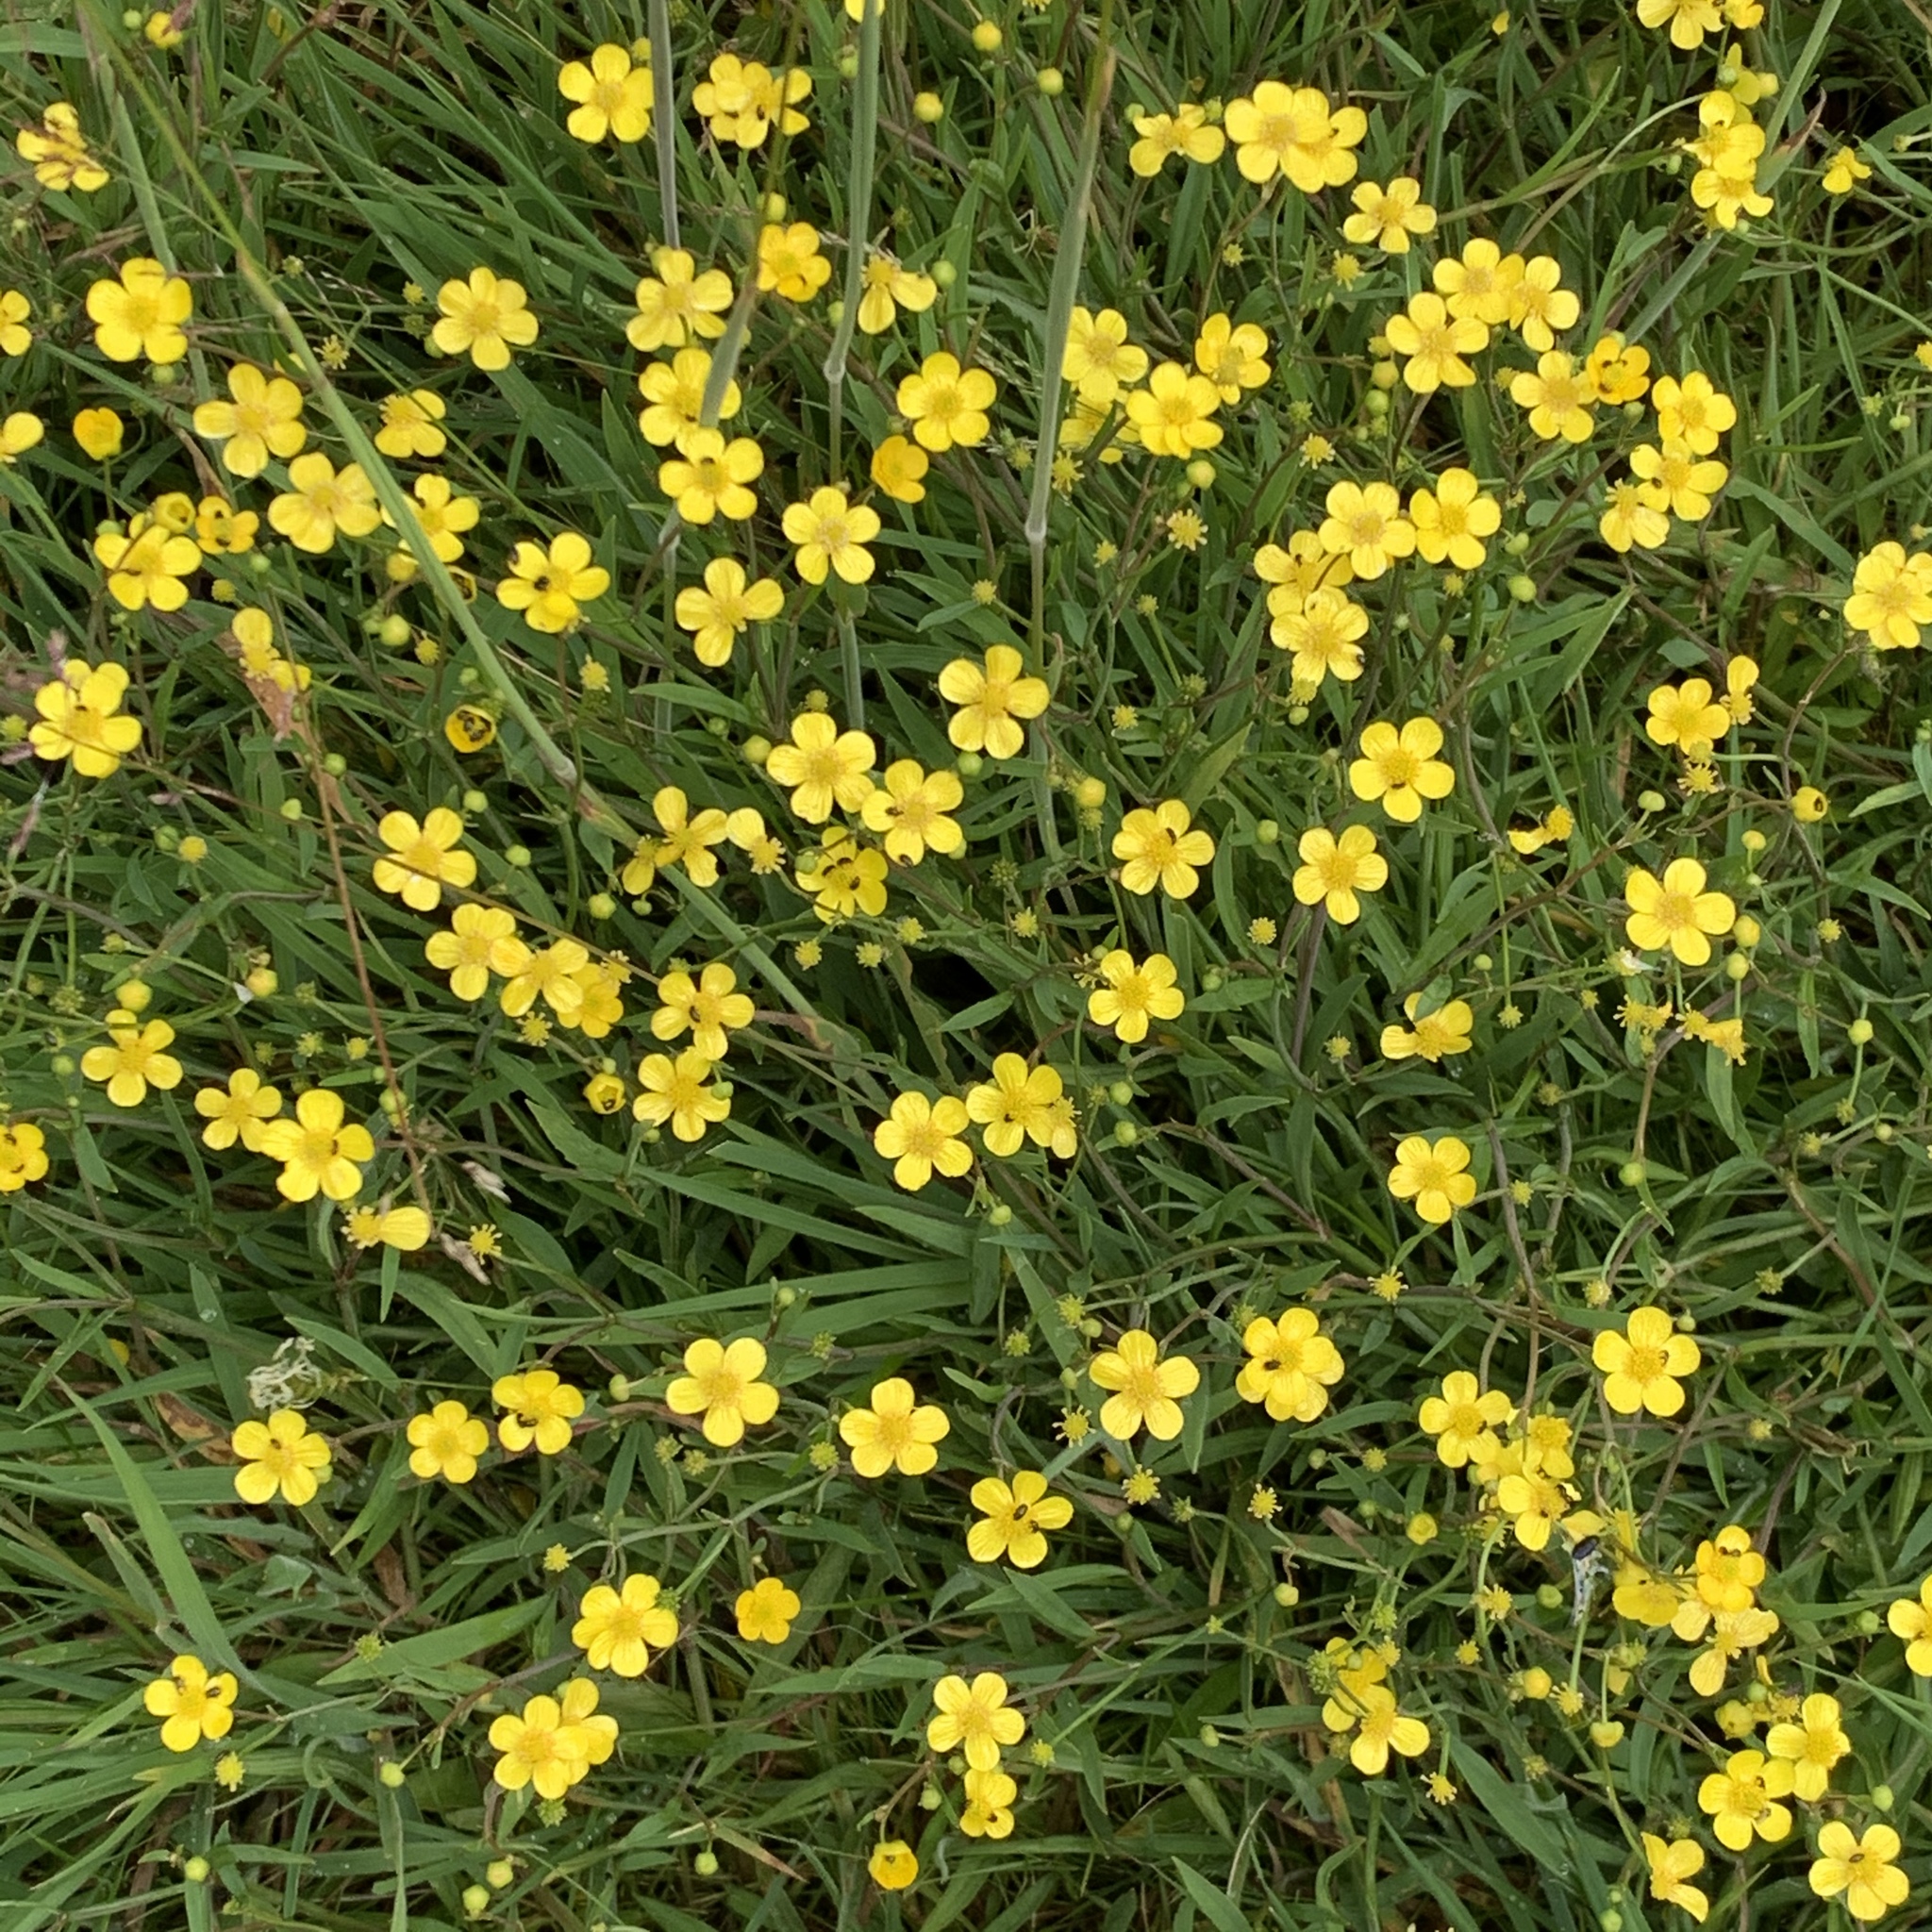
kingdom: Plantae
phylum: Tracheophyta
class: Magnoliopsida
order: Ranunculales
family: Ranunculaceae
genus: Ranunculus
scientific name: Ranunculus flammula
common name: Lesser spearwort
